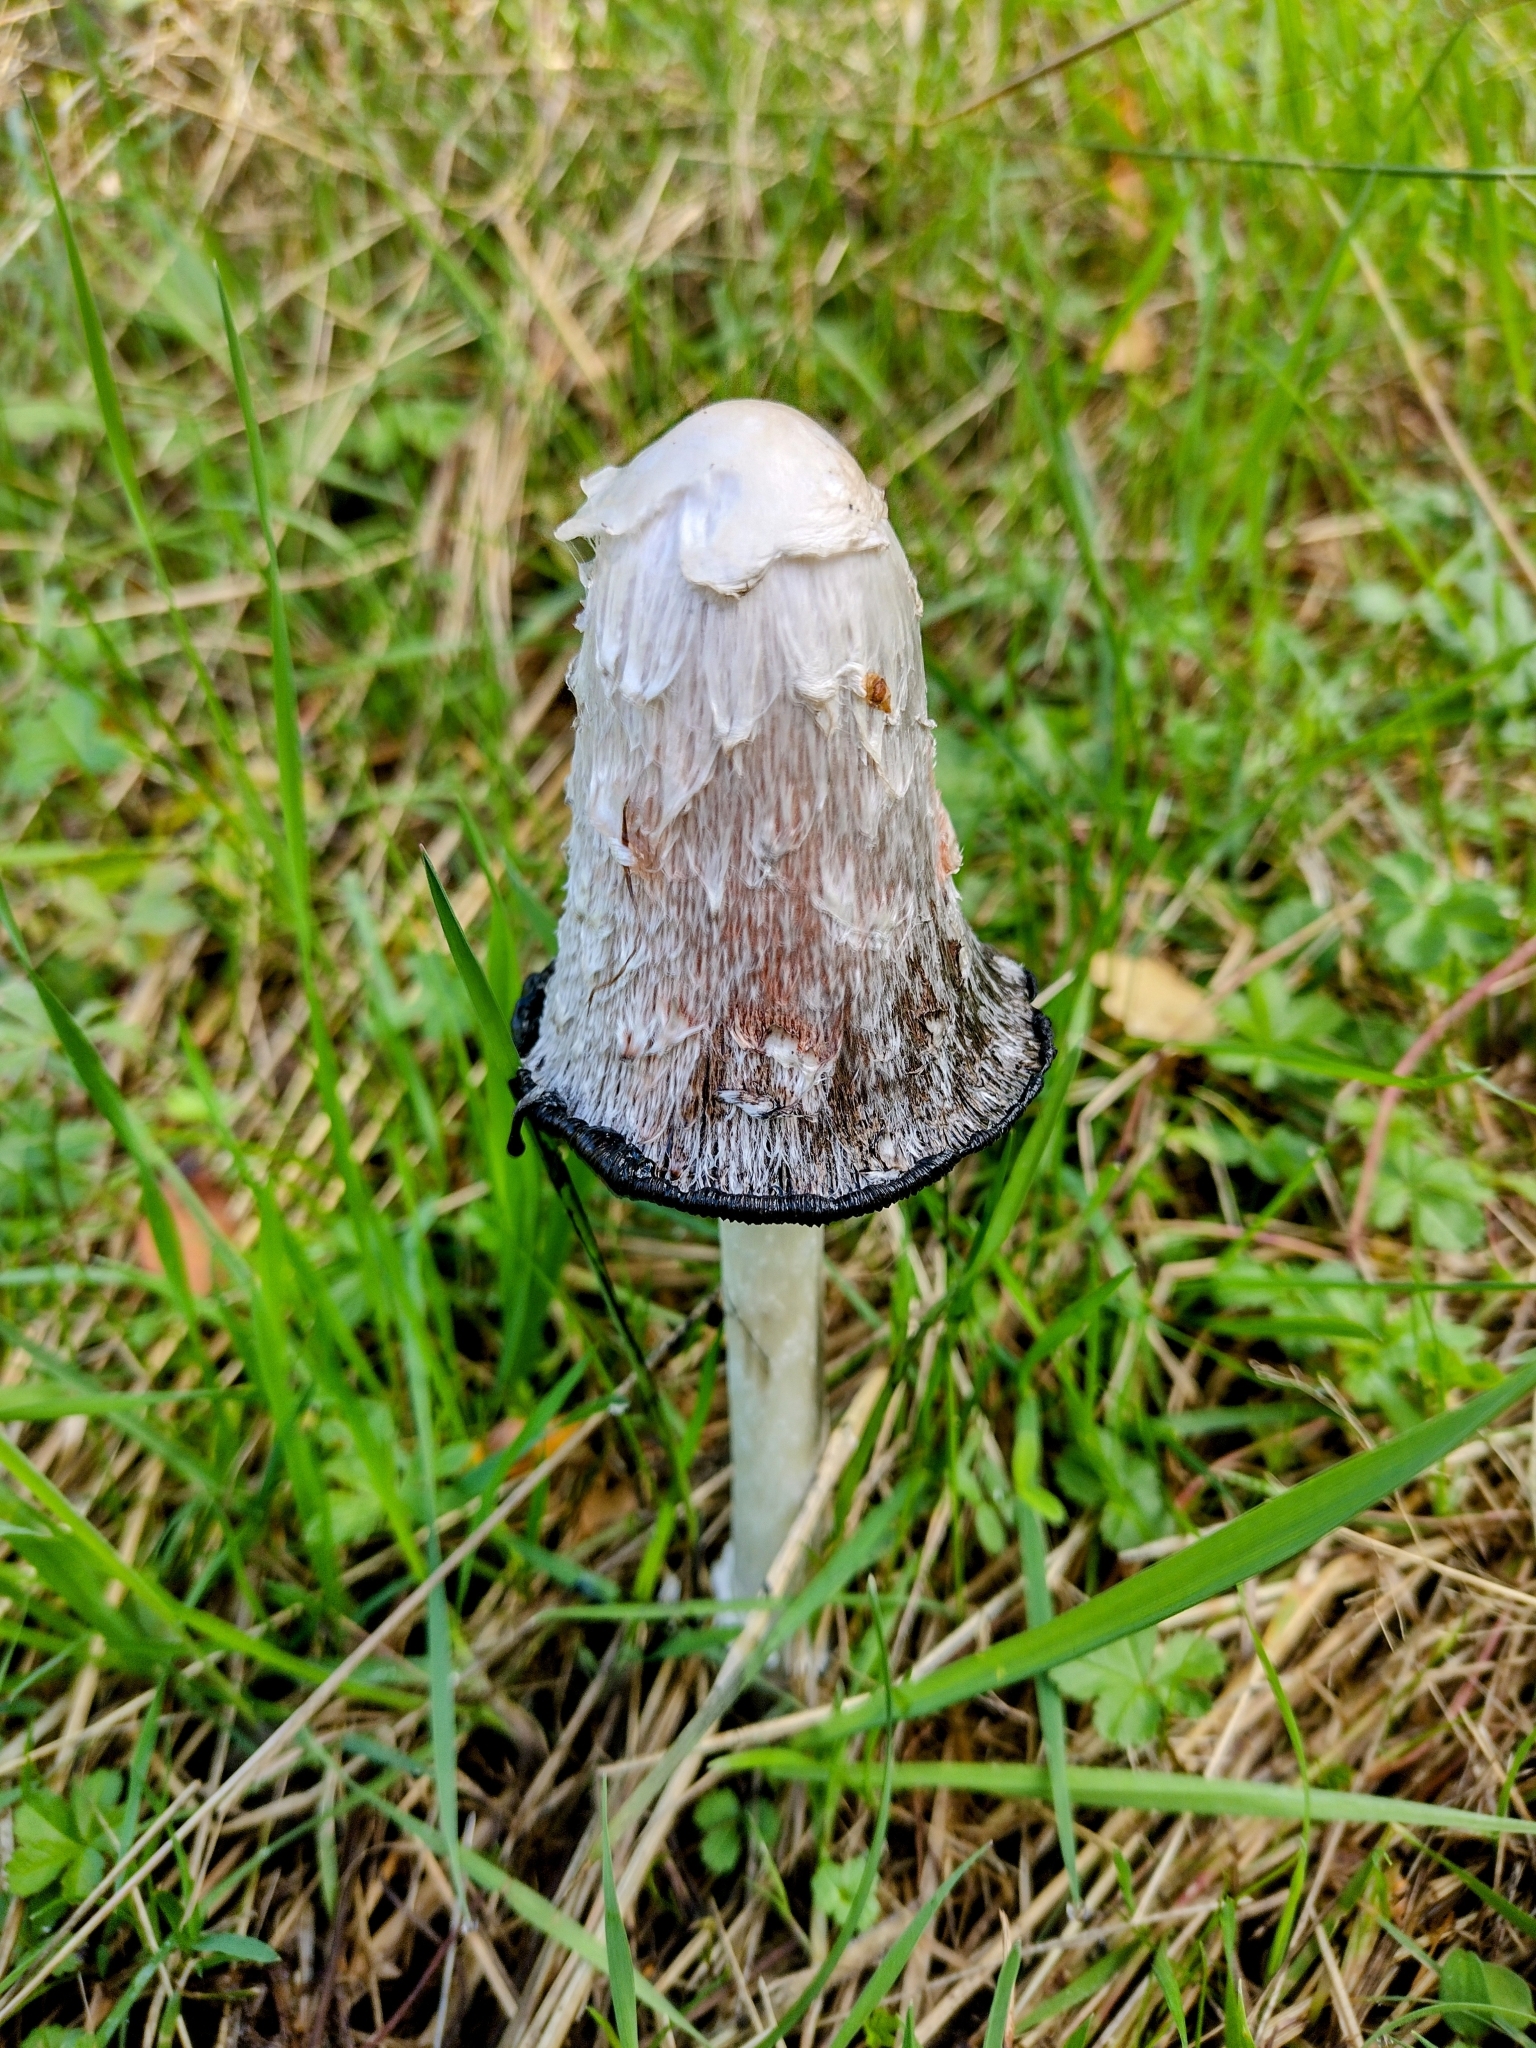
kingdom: Fungi
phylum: Basidiomycota
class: Agaricomycetes
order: Agaricales
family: Agaricaceae
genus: Coprinus
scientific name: Coprinus comatus
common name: Lawyer's wig
